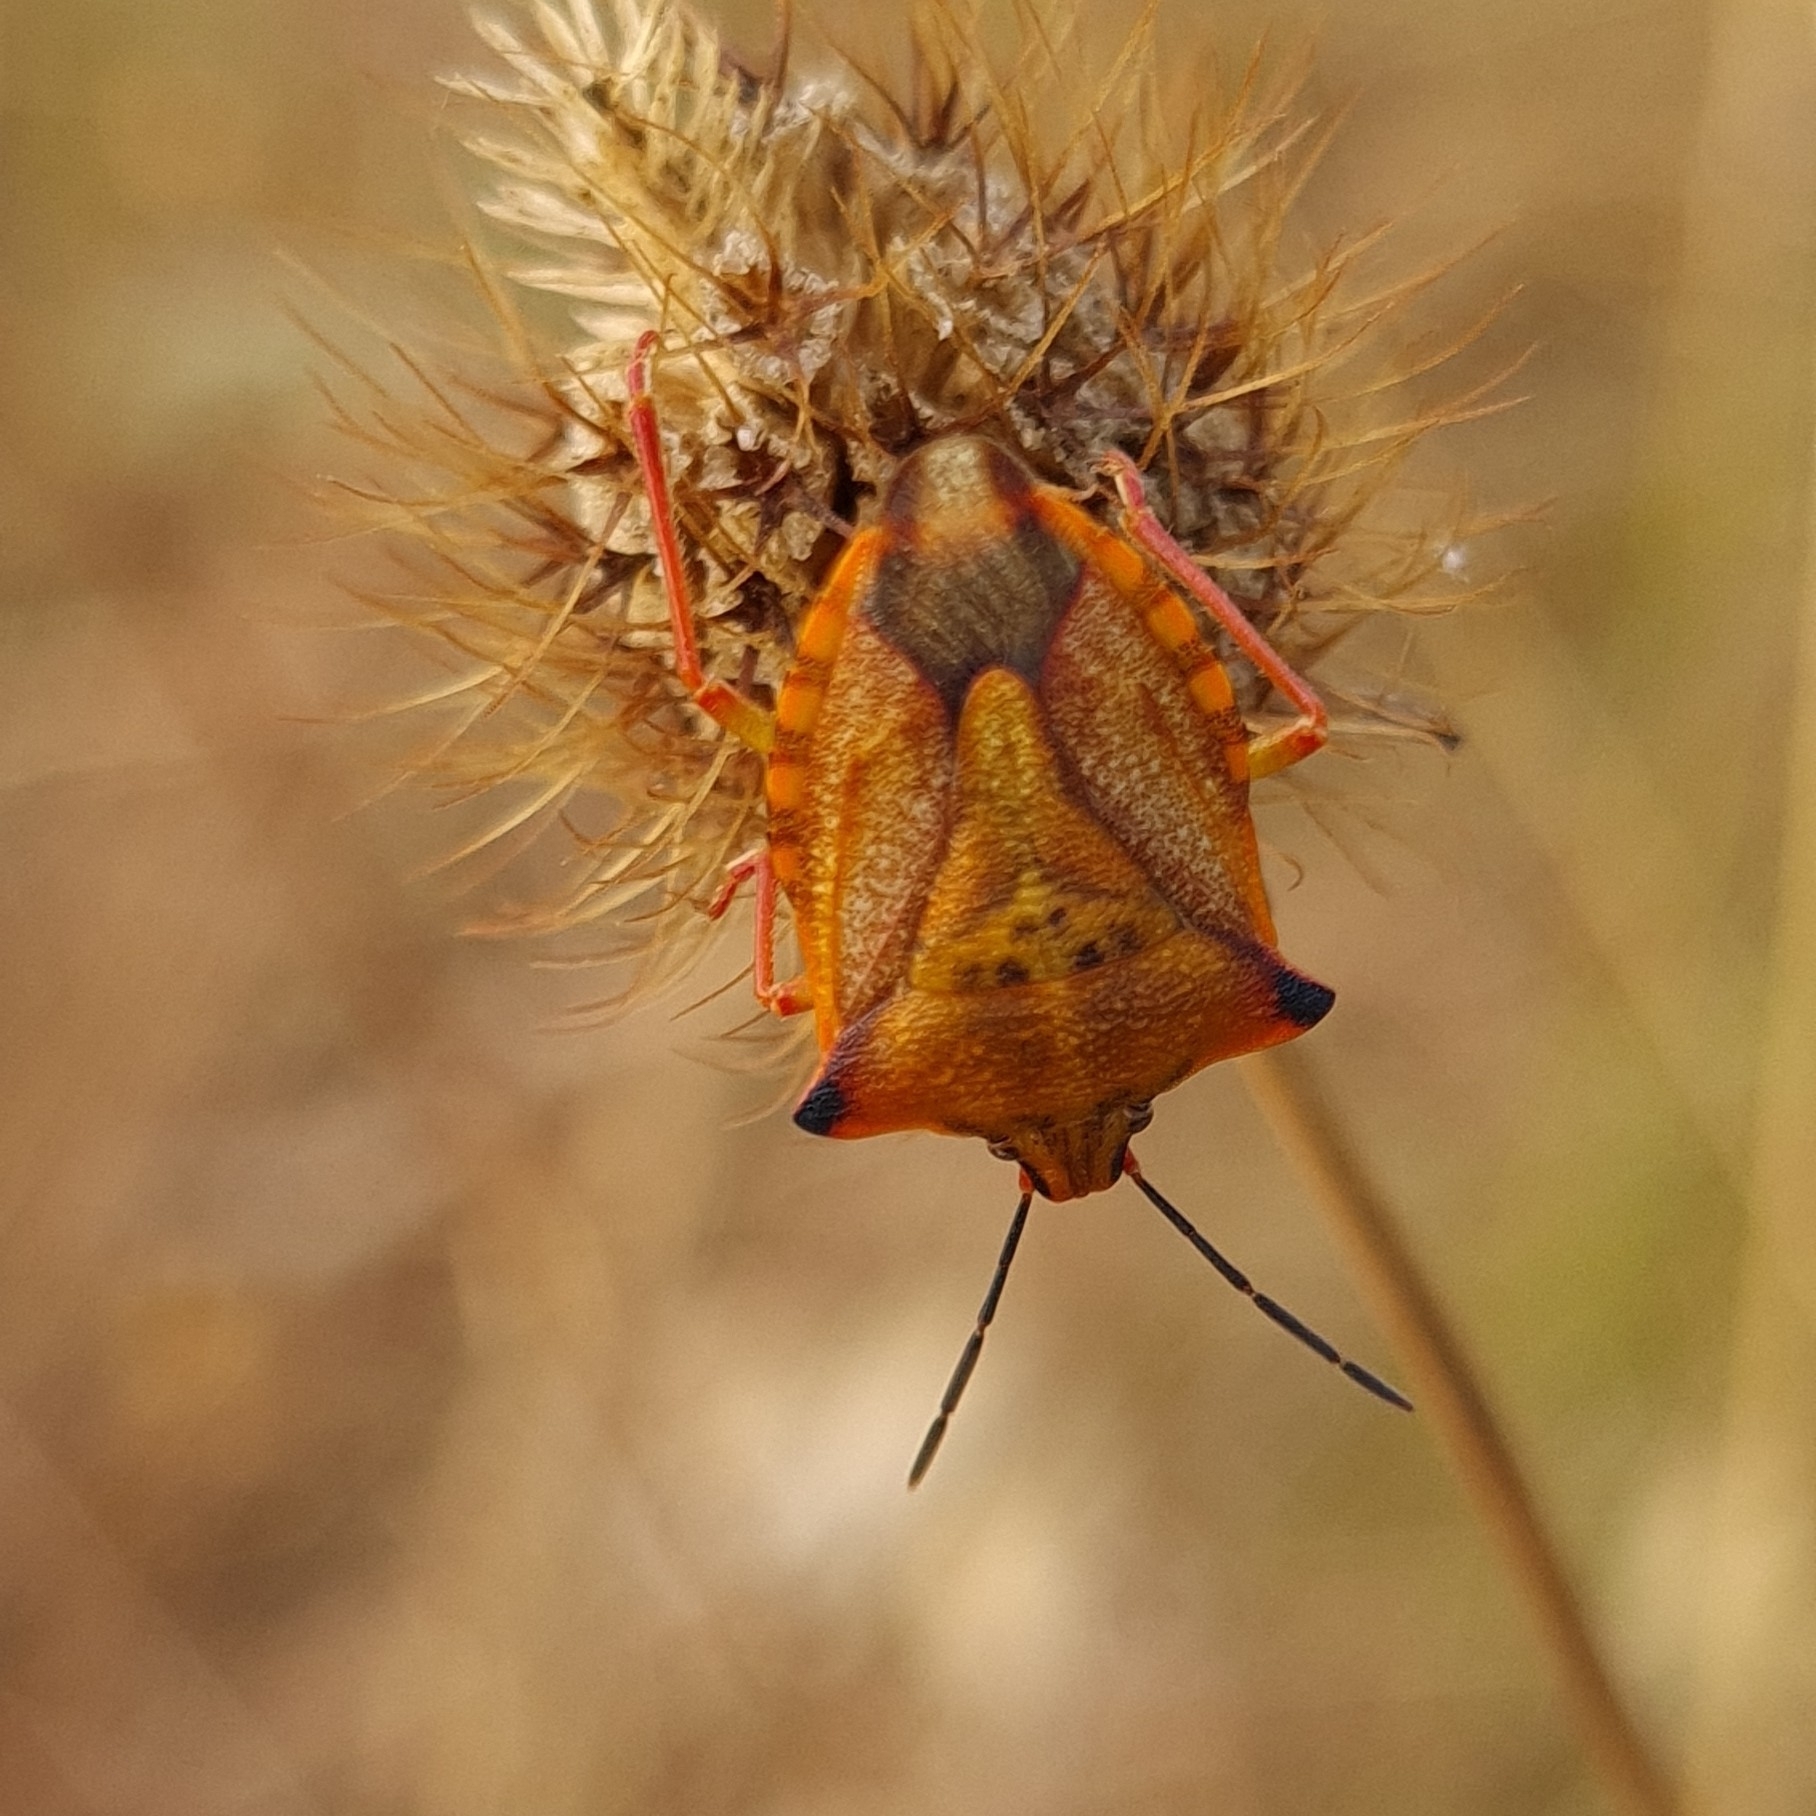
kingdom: Animalia
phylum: Arthropoda
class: Insecta
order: Hemiptera
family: Pentatomidae
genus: Carpocoris
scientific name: Carpocoris mediterraneus
